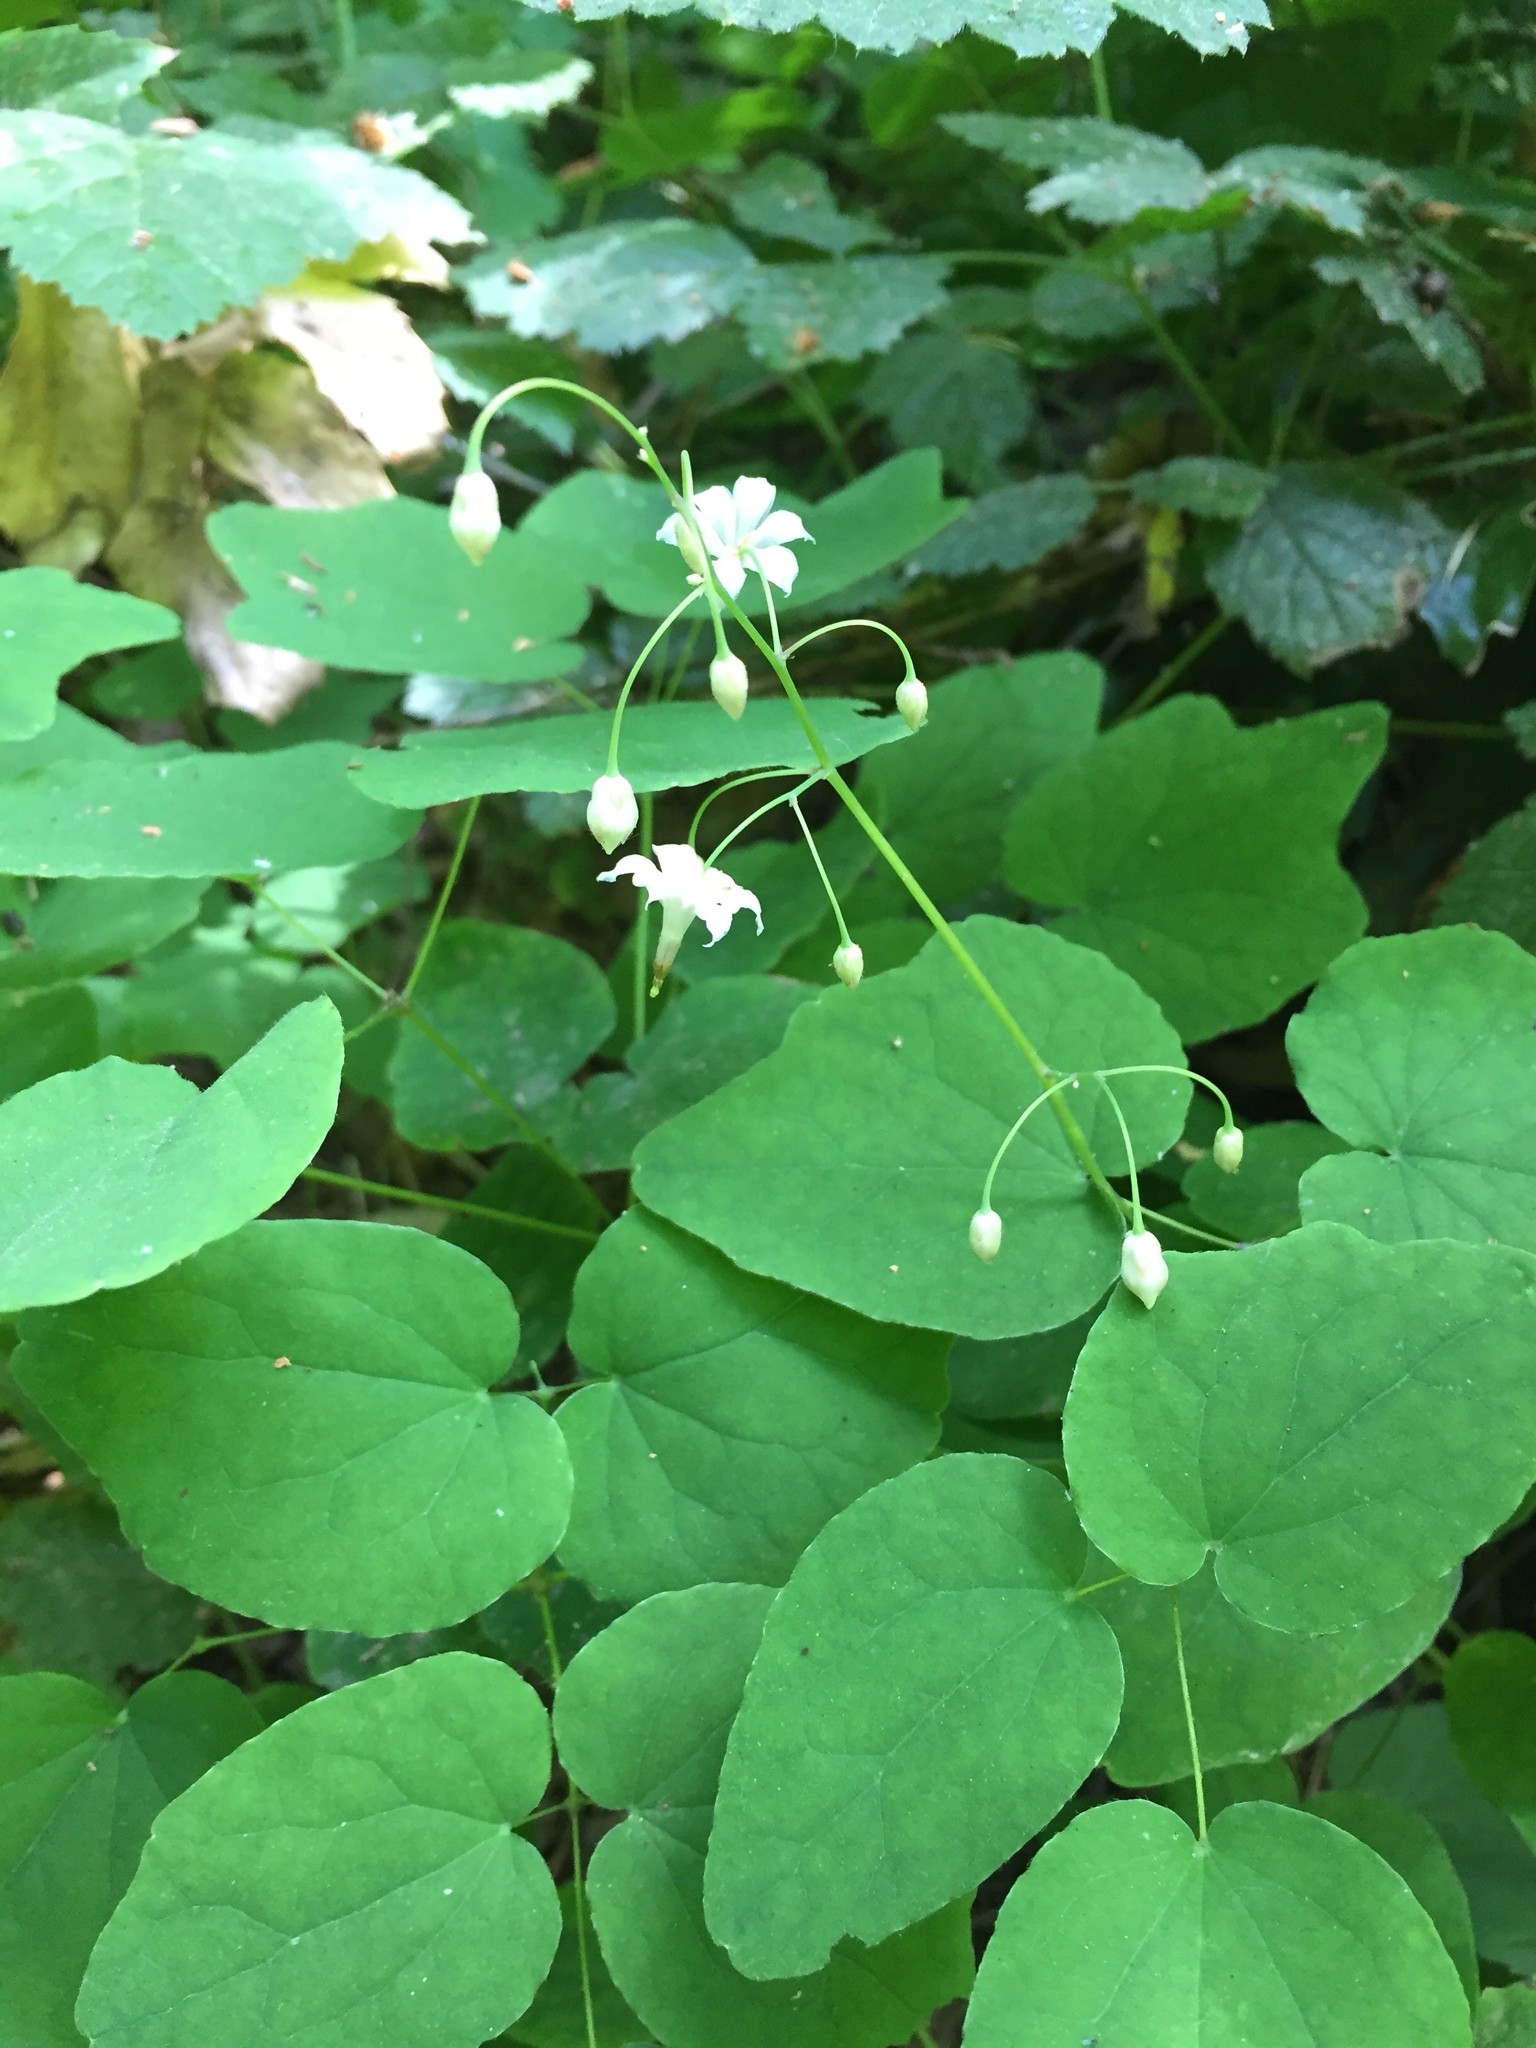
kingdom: Plantae
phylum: Tracheophyta
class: Magnoliopsida
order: Ranunculales
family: Berberidaceae
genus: Vancouveria
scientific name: Vancouveria hexandra
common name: Northern inside-out-flower
